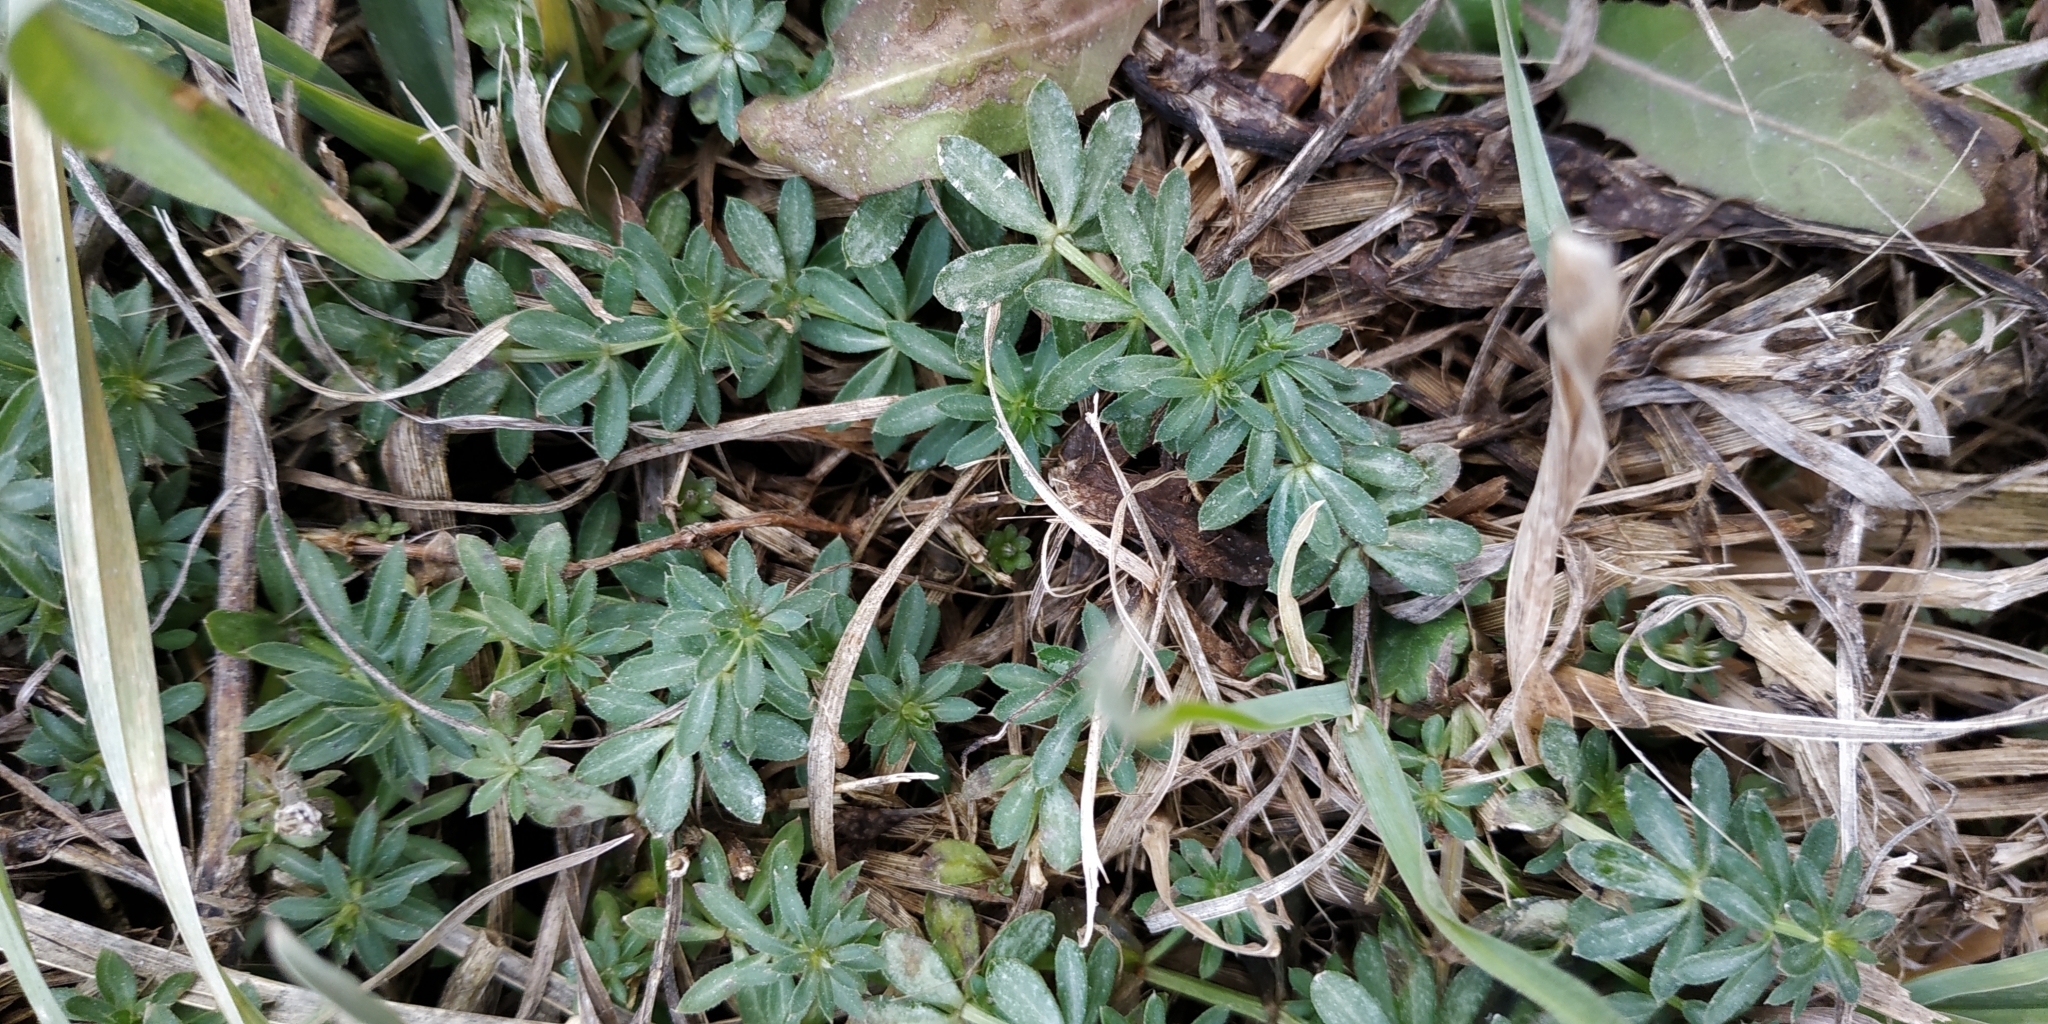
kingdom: Plantae
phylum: Tracheophyta
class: Magnoliopsida
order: Gentianales
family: Rubiaceae
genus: Galium
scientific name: Galium mollugo
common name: Hedge bedstraw
